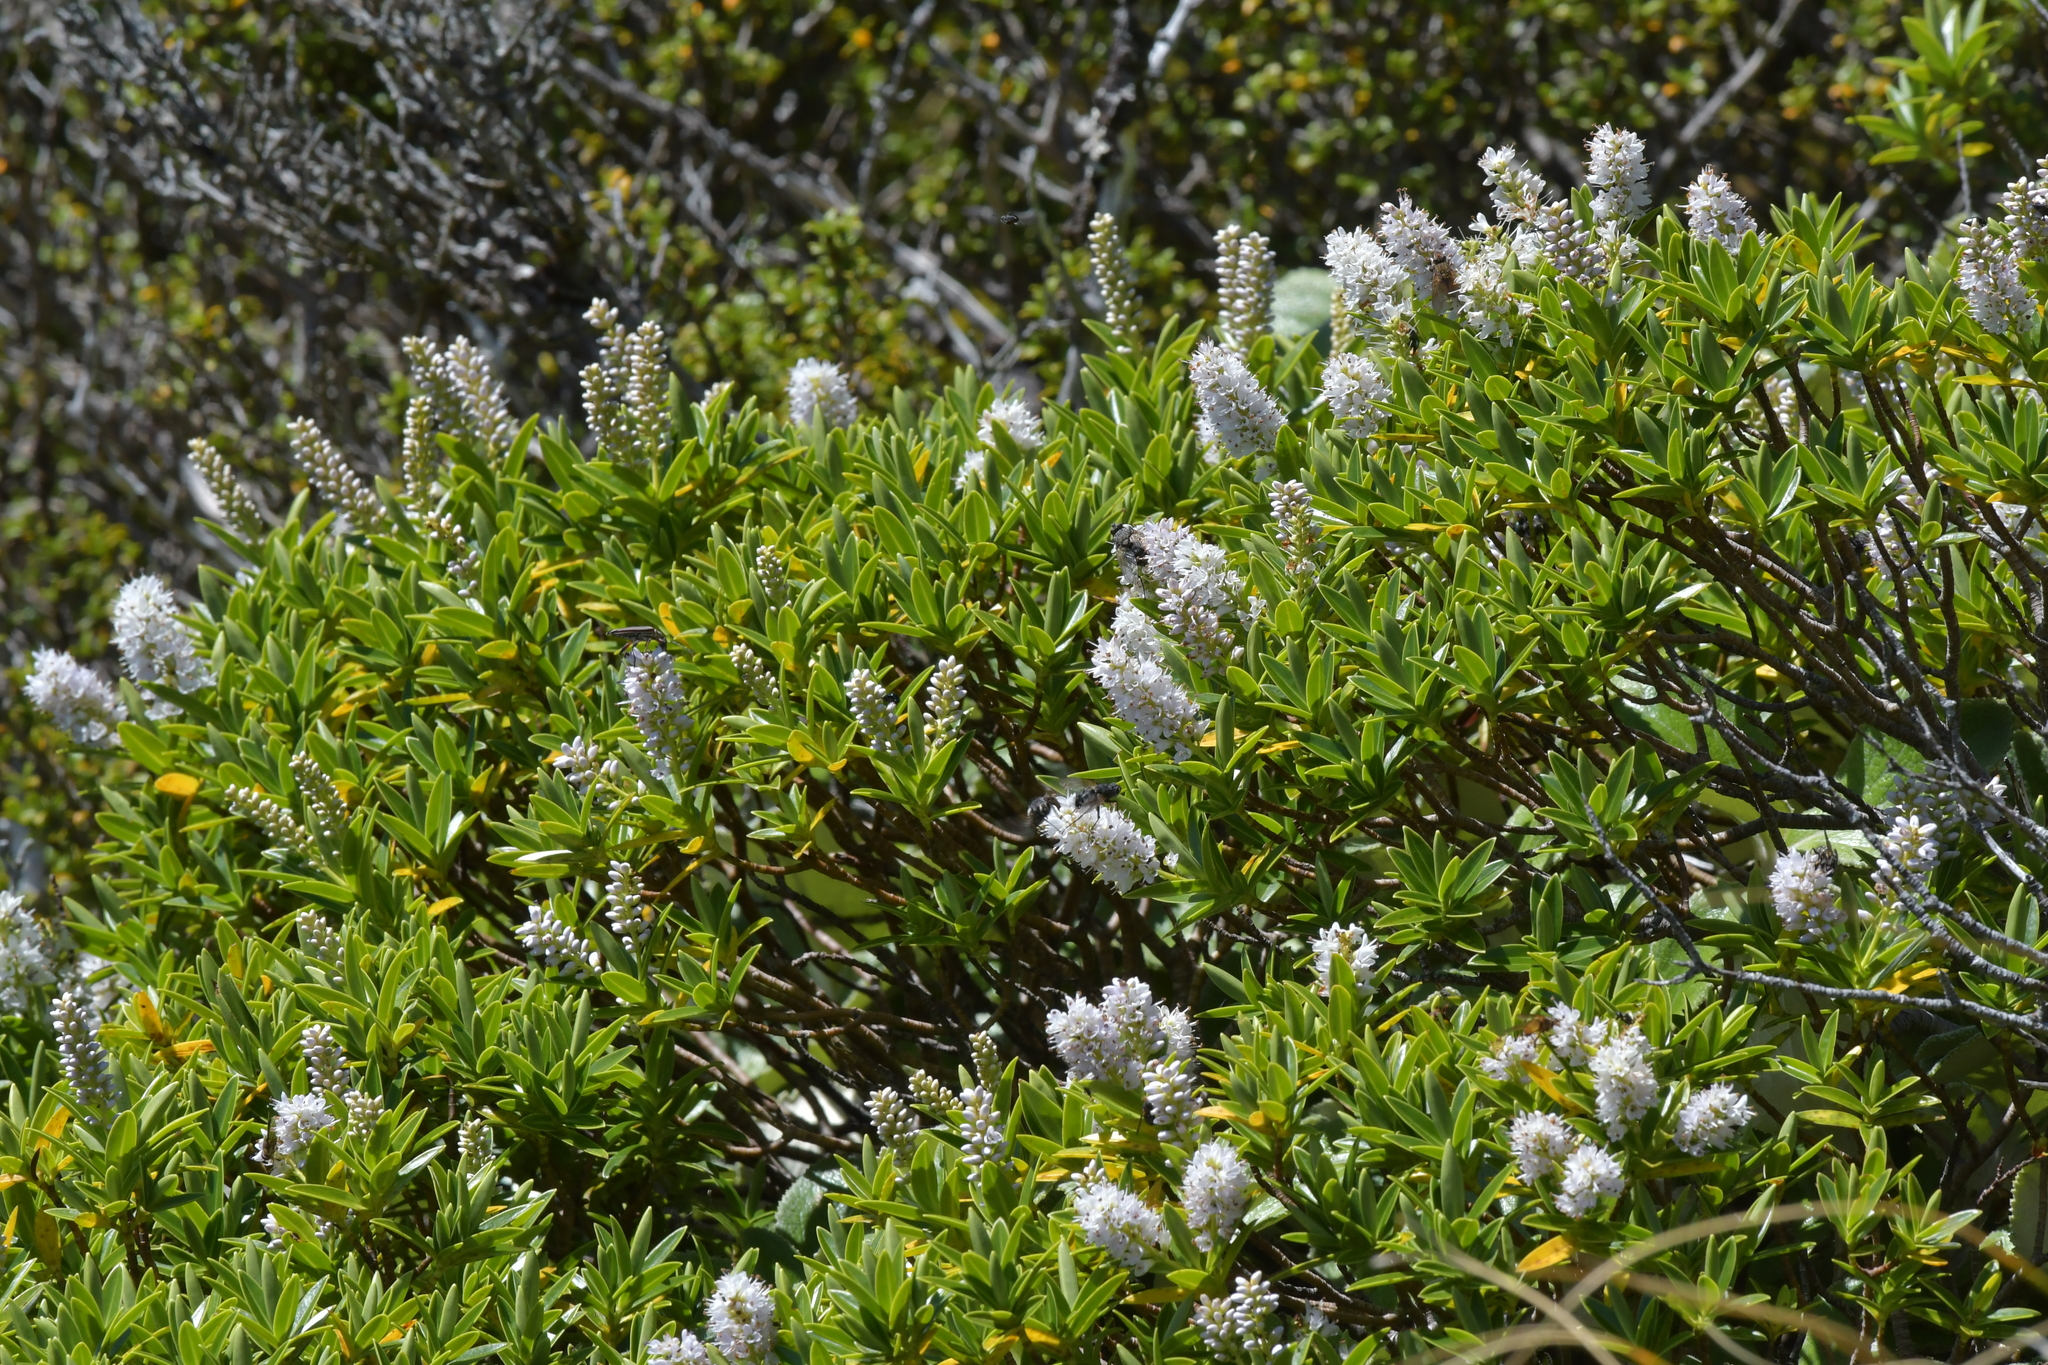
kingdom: Plantae
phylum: Tracheophyta
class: Magnoliopsida
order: Lamiales
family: Plantaginaceae
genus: Veronica
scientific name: Veronica truncatula
